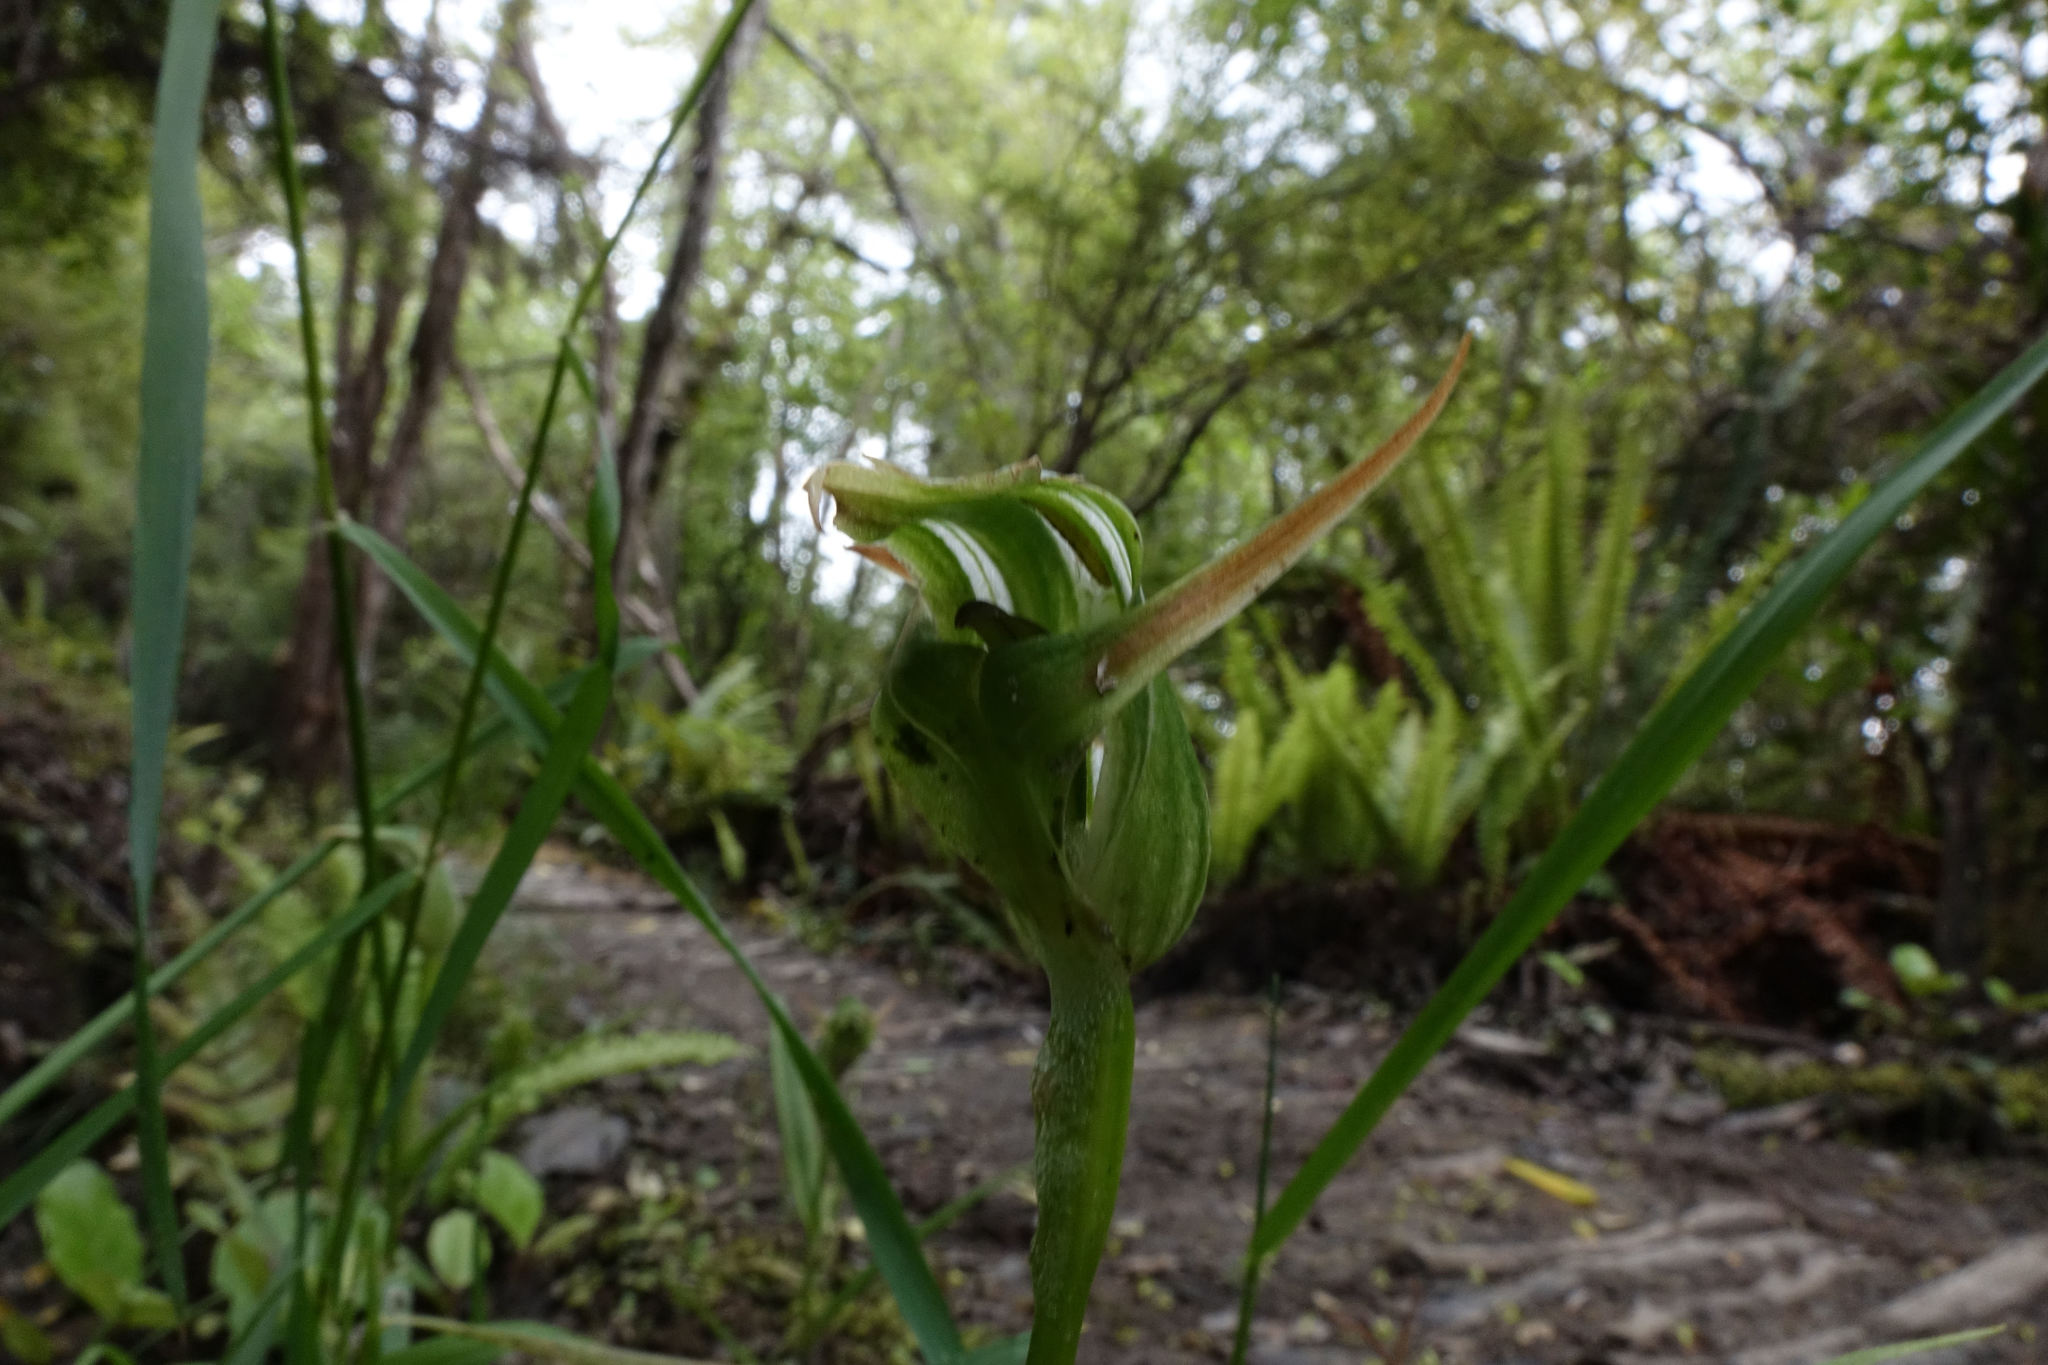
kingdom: Plantae
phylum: Tracheophyta
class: Liliopsida
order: Asparagales
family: Orchidaceae
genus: Pterostylis
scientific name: Pterostylis australis
